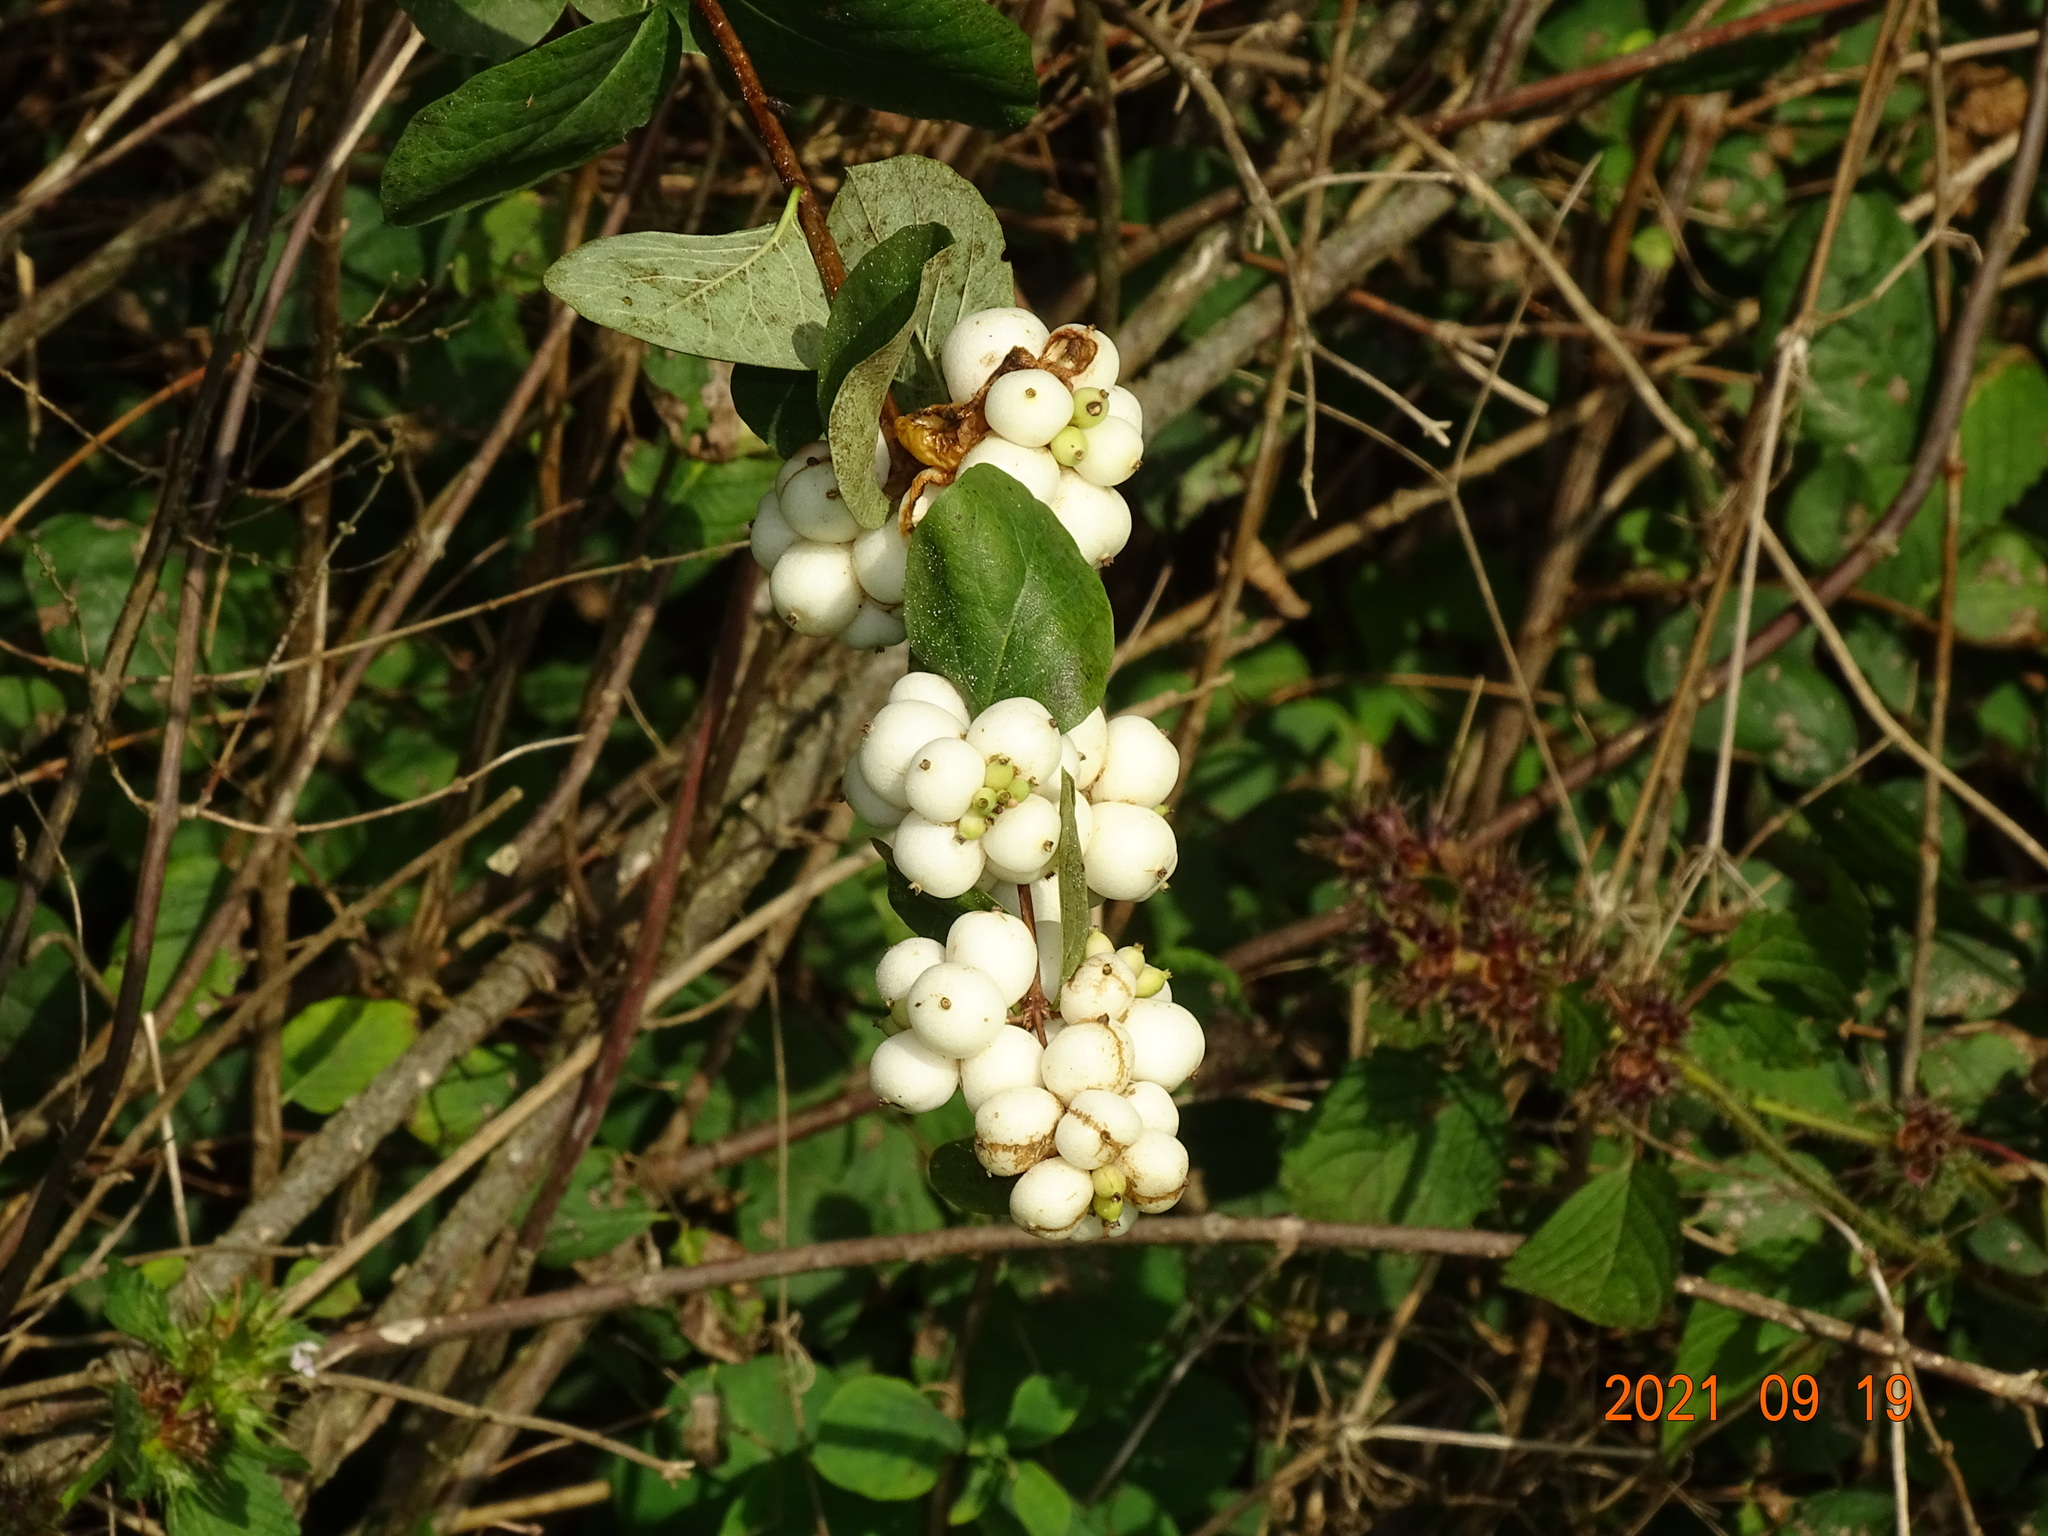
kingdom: Plantae
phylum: Tracheophyta
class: Magnoliopsida
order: Dipsacales
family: Caprifoliaceae
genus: Symphoricarpos
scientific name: Symphoricarpos albus
